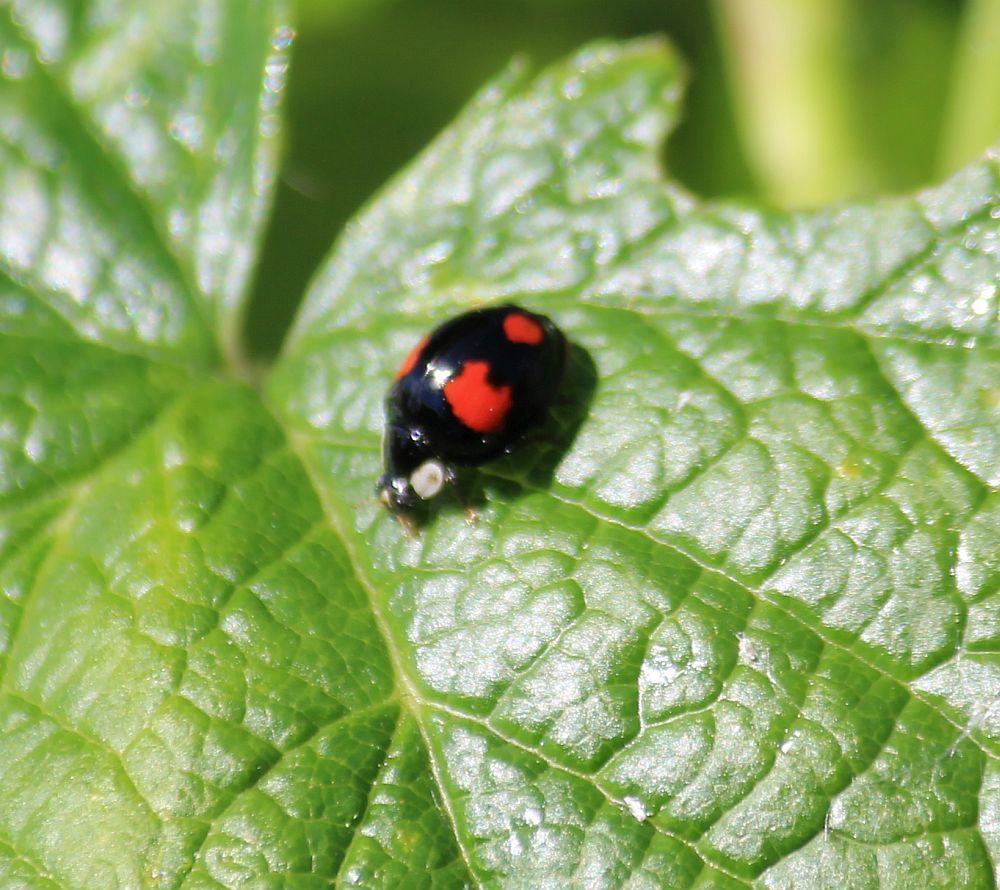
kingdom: Animalia
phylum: Arthropoda
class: Insecta
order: Coleoptera
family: Coccinellidae
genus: Harmonia
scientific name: Harmonia axyridis
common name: Harlequin ladybird
